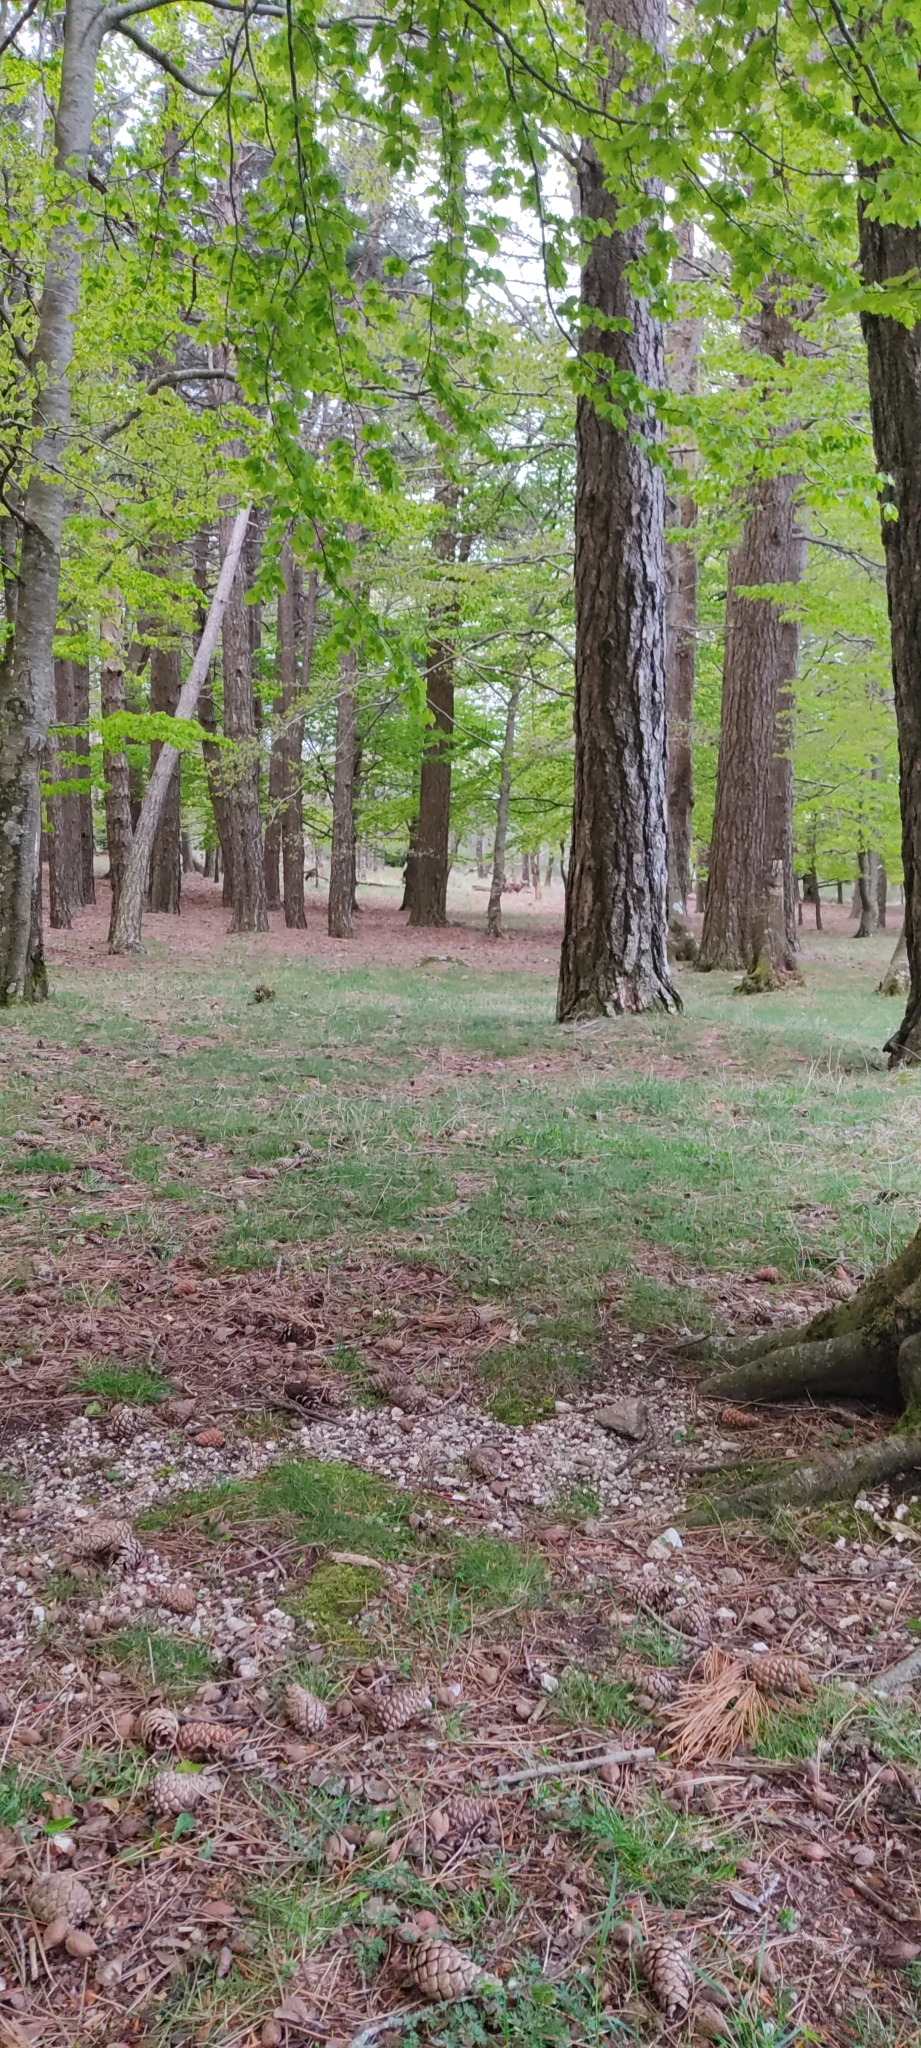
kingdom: Animalia
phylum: Chordata
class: Mammalia
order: Artiodactyla
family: Bovidae
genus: Ovis
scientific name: Ovis aries
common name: Domestic sheep
